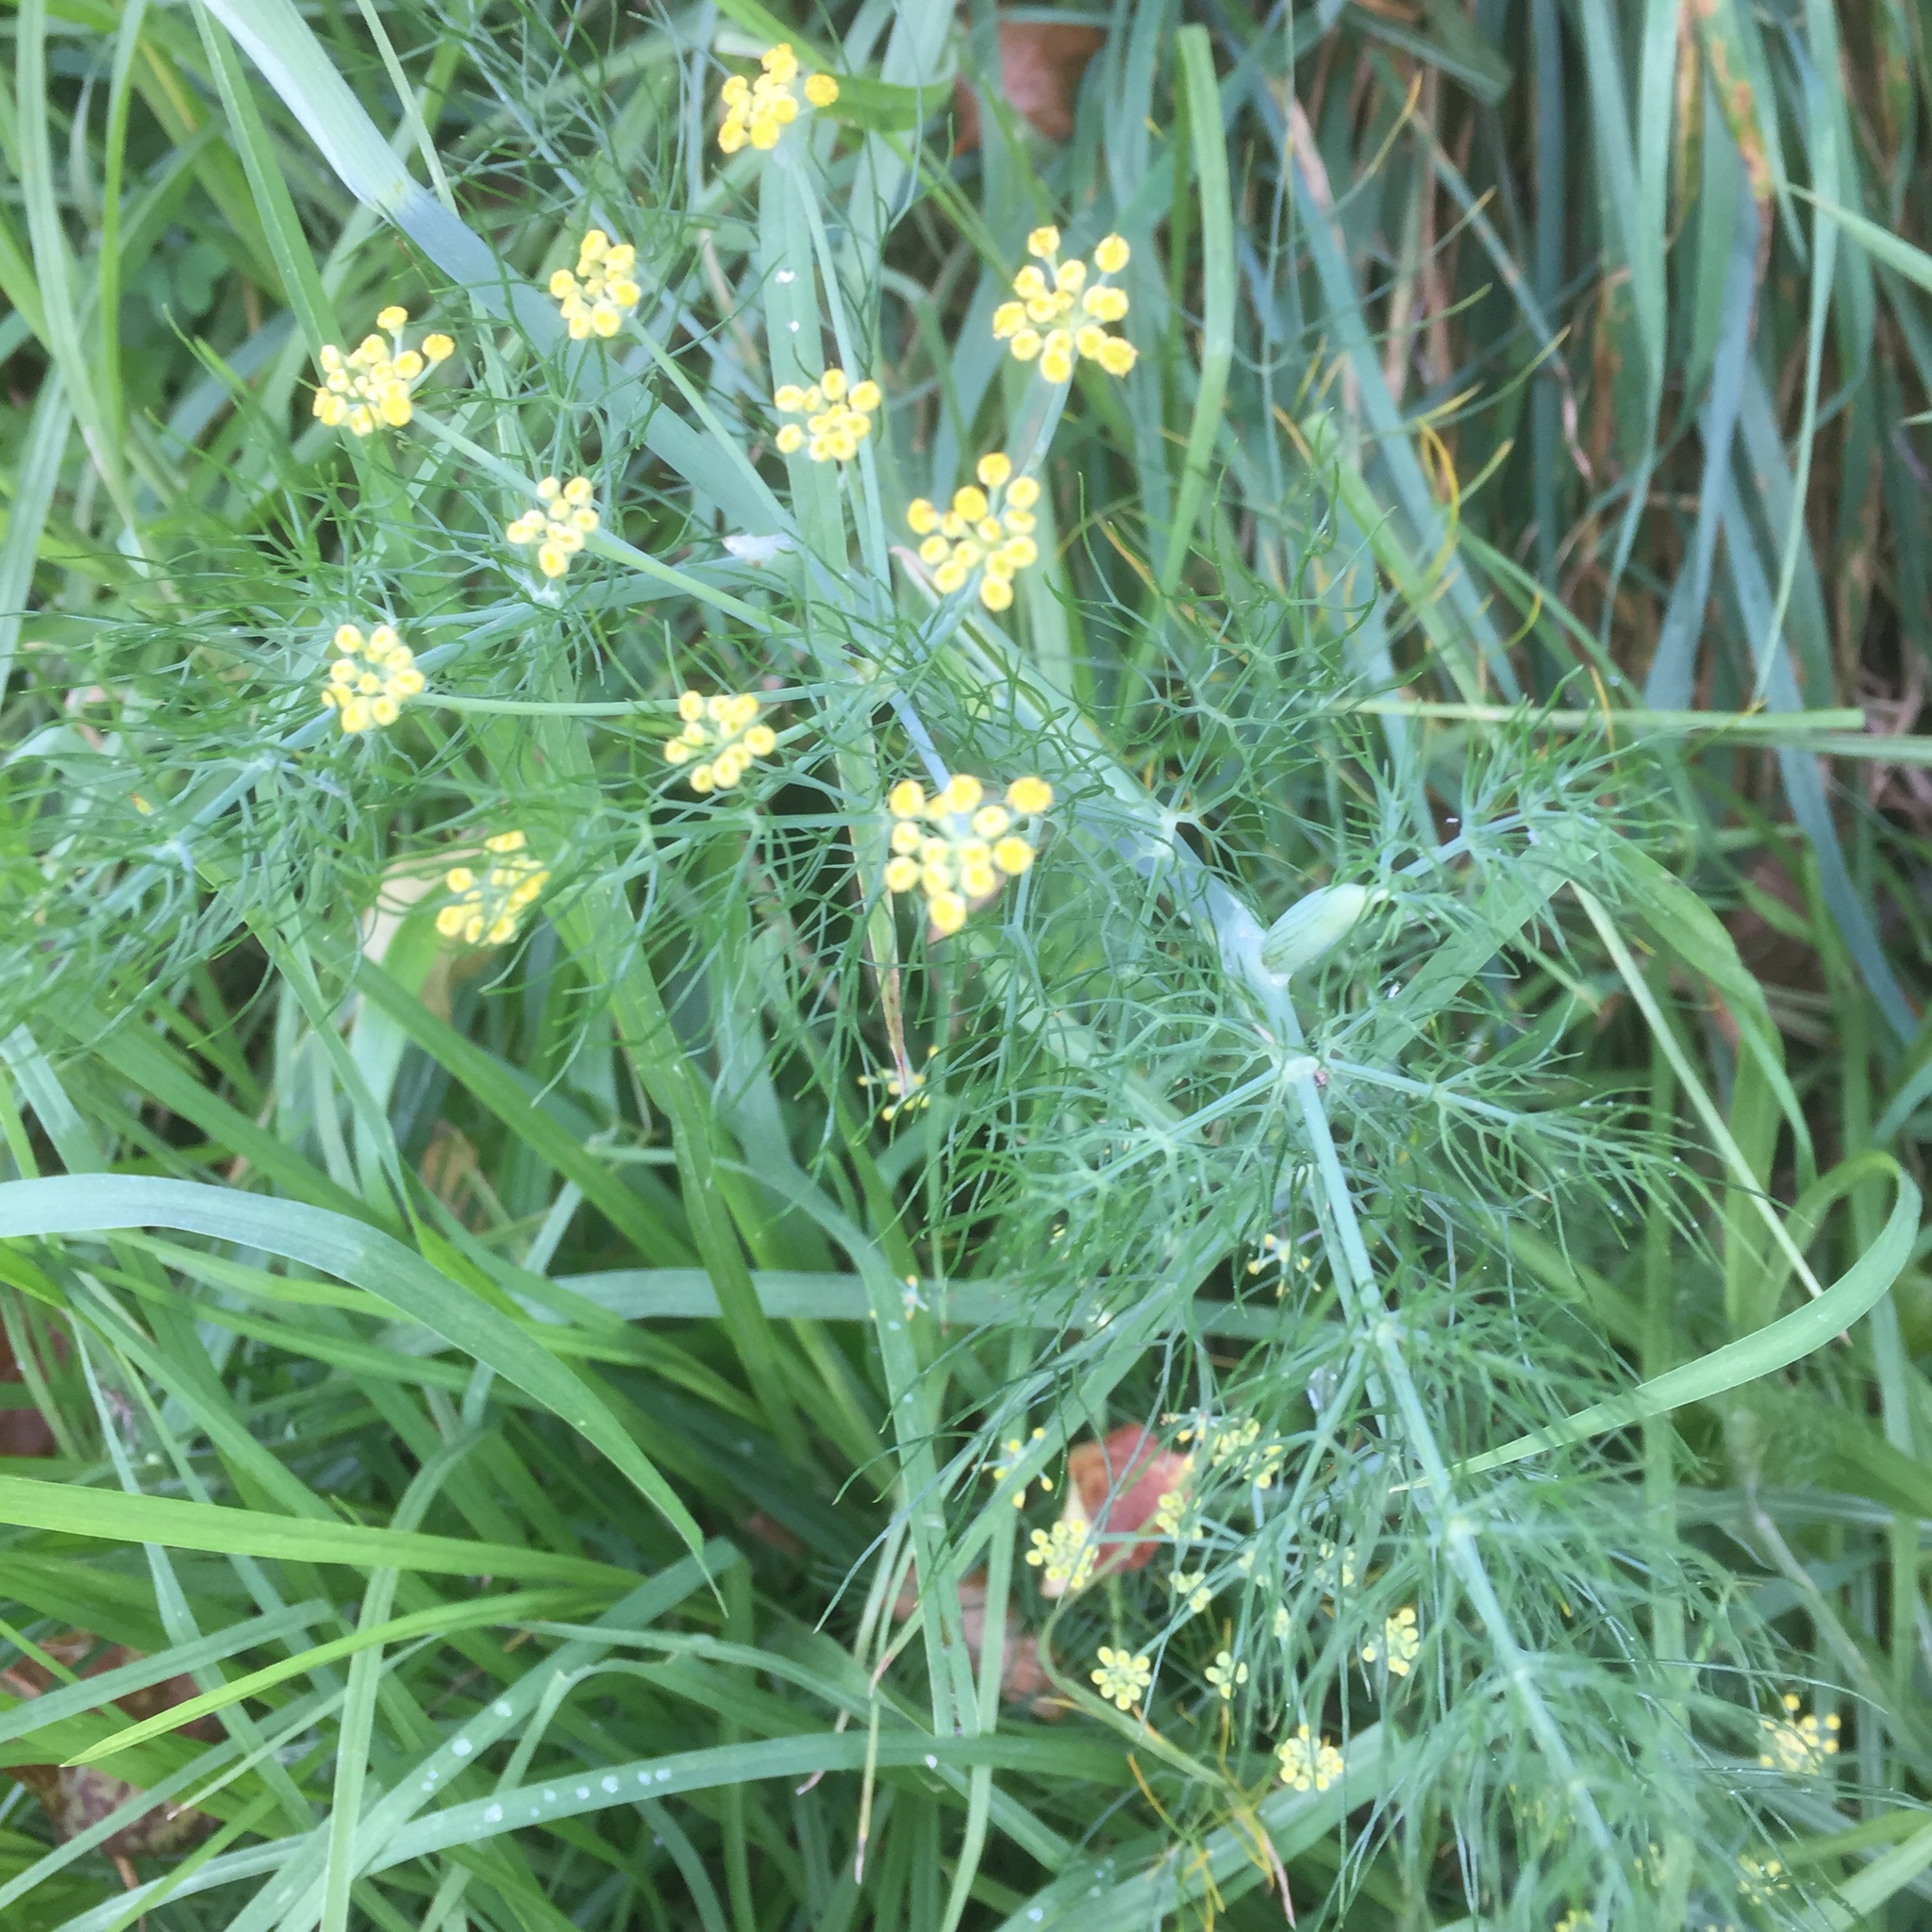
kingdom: Plantae
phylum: Tracheophyta
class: Magnoliopsida
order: Apiales
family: Apiaceae
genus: Foeniculum
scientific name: Foeniculum vulgare
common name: Fennel
